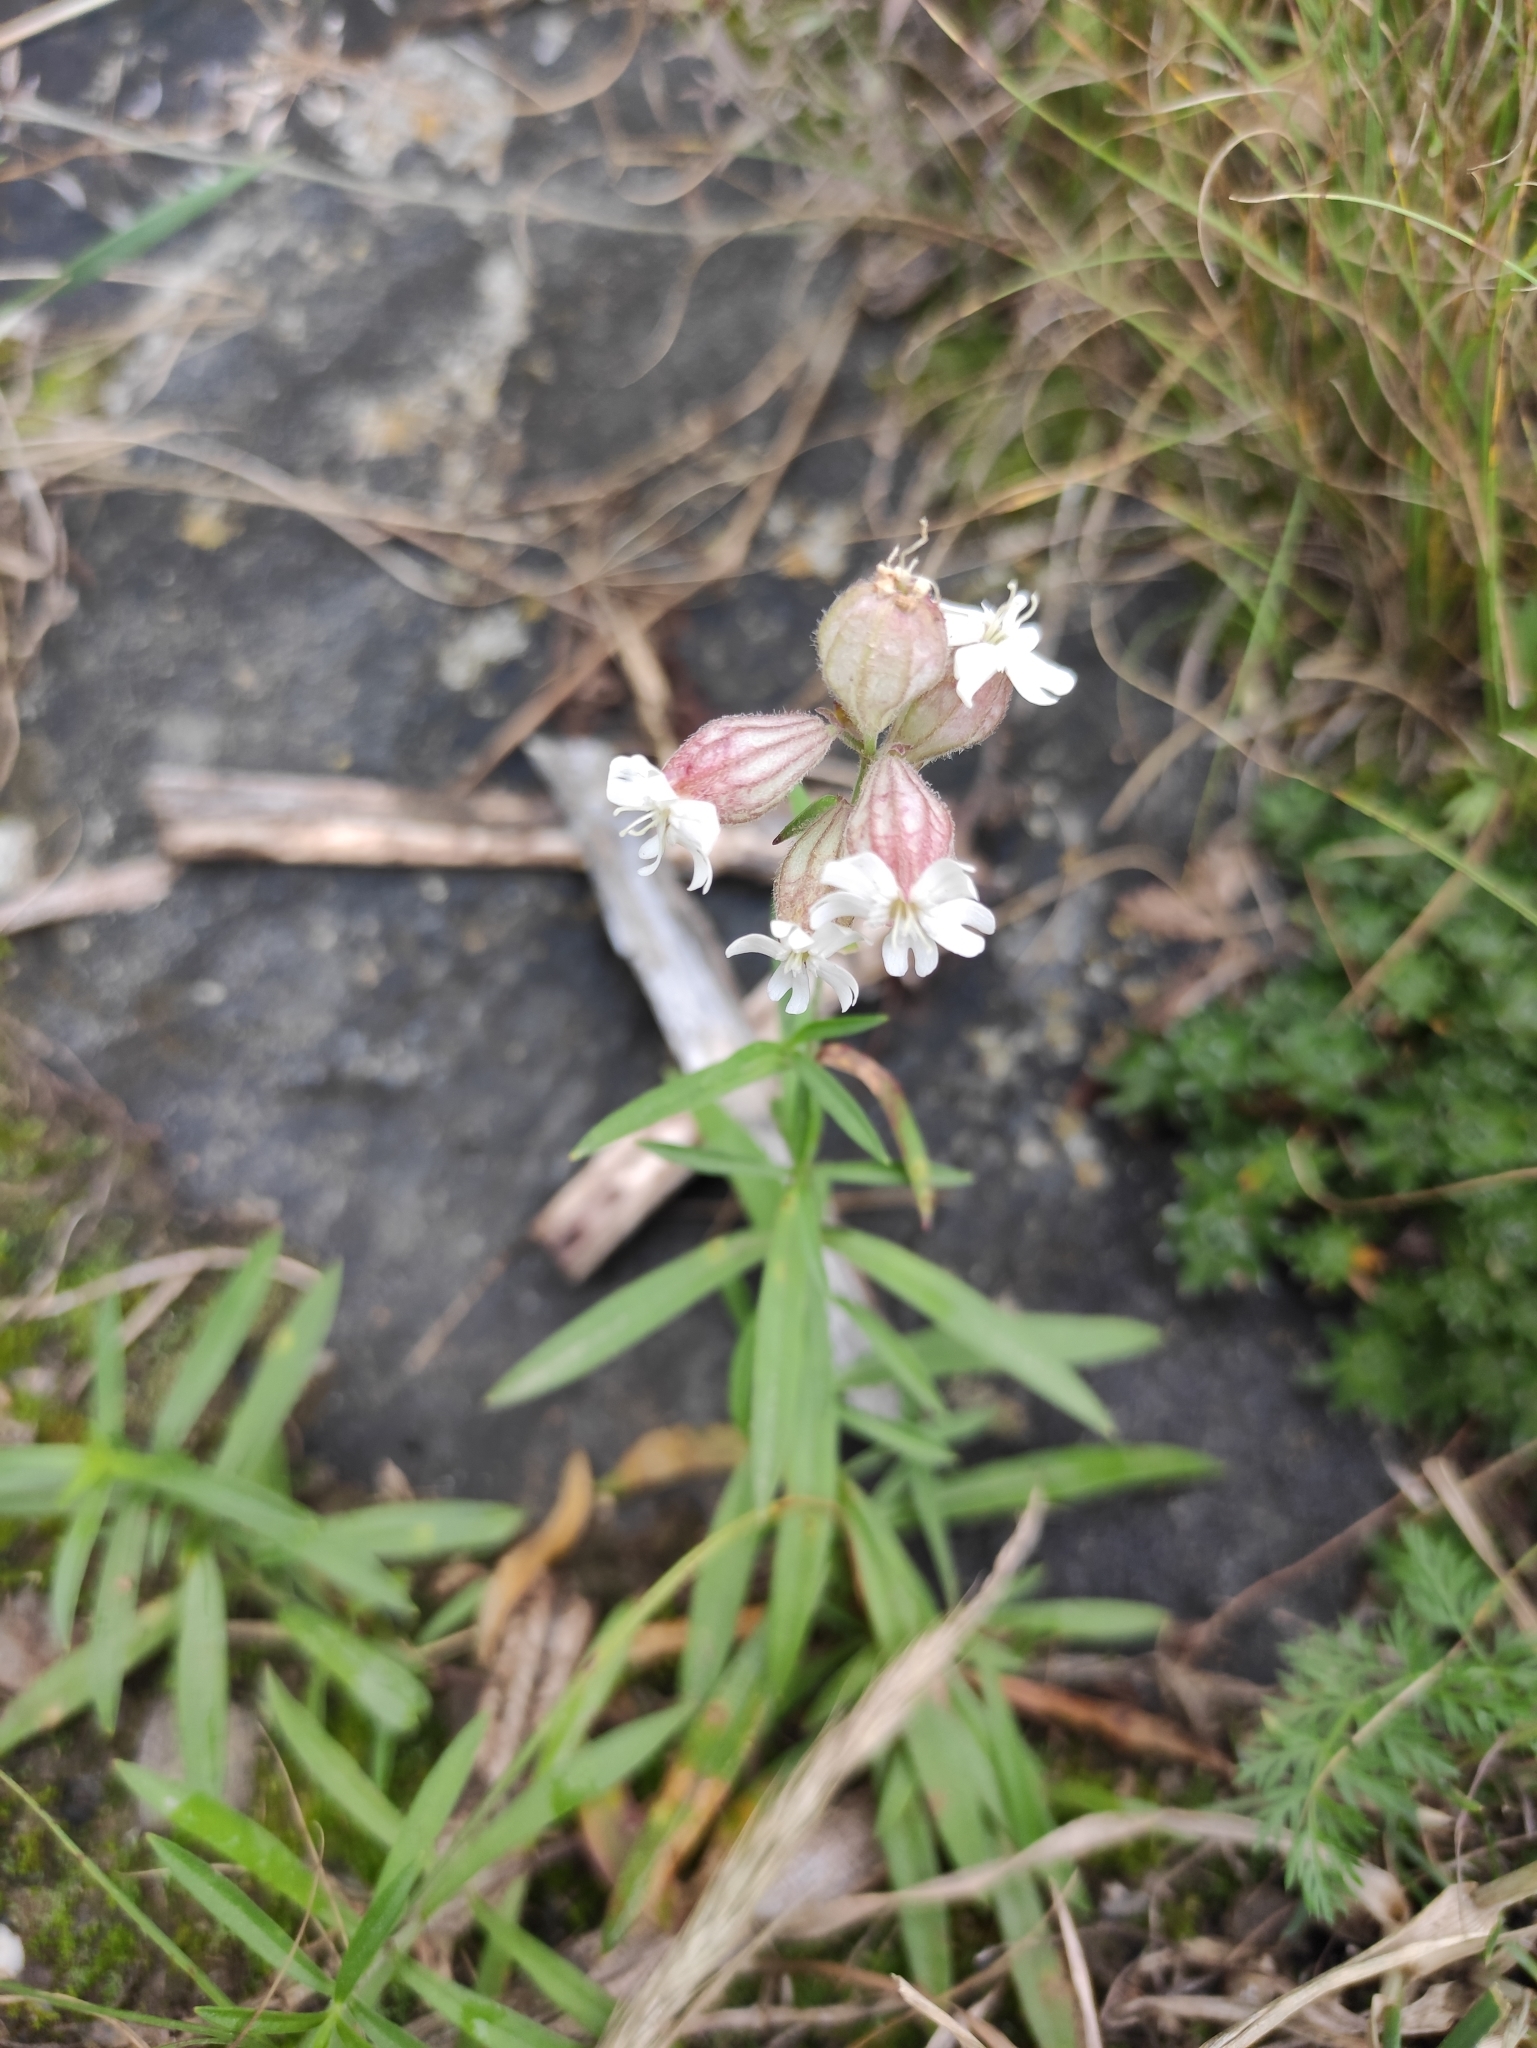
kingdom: Plantae
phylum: Tracheophyta
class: Magnoliopsida
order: Caryophyllales
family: Caryophyllaceae
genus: Silene
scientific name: Silene amoena
